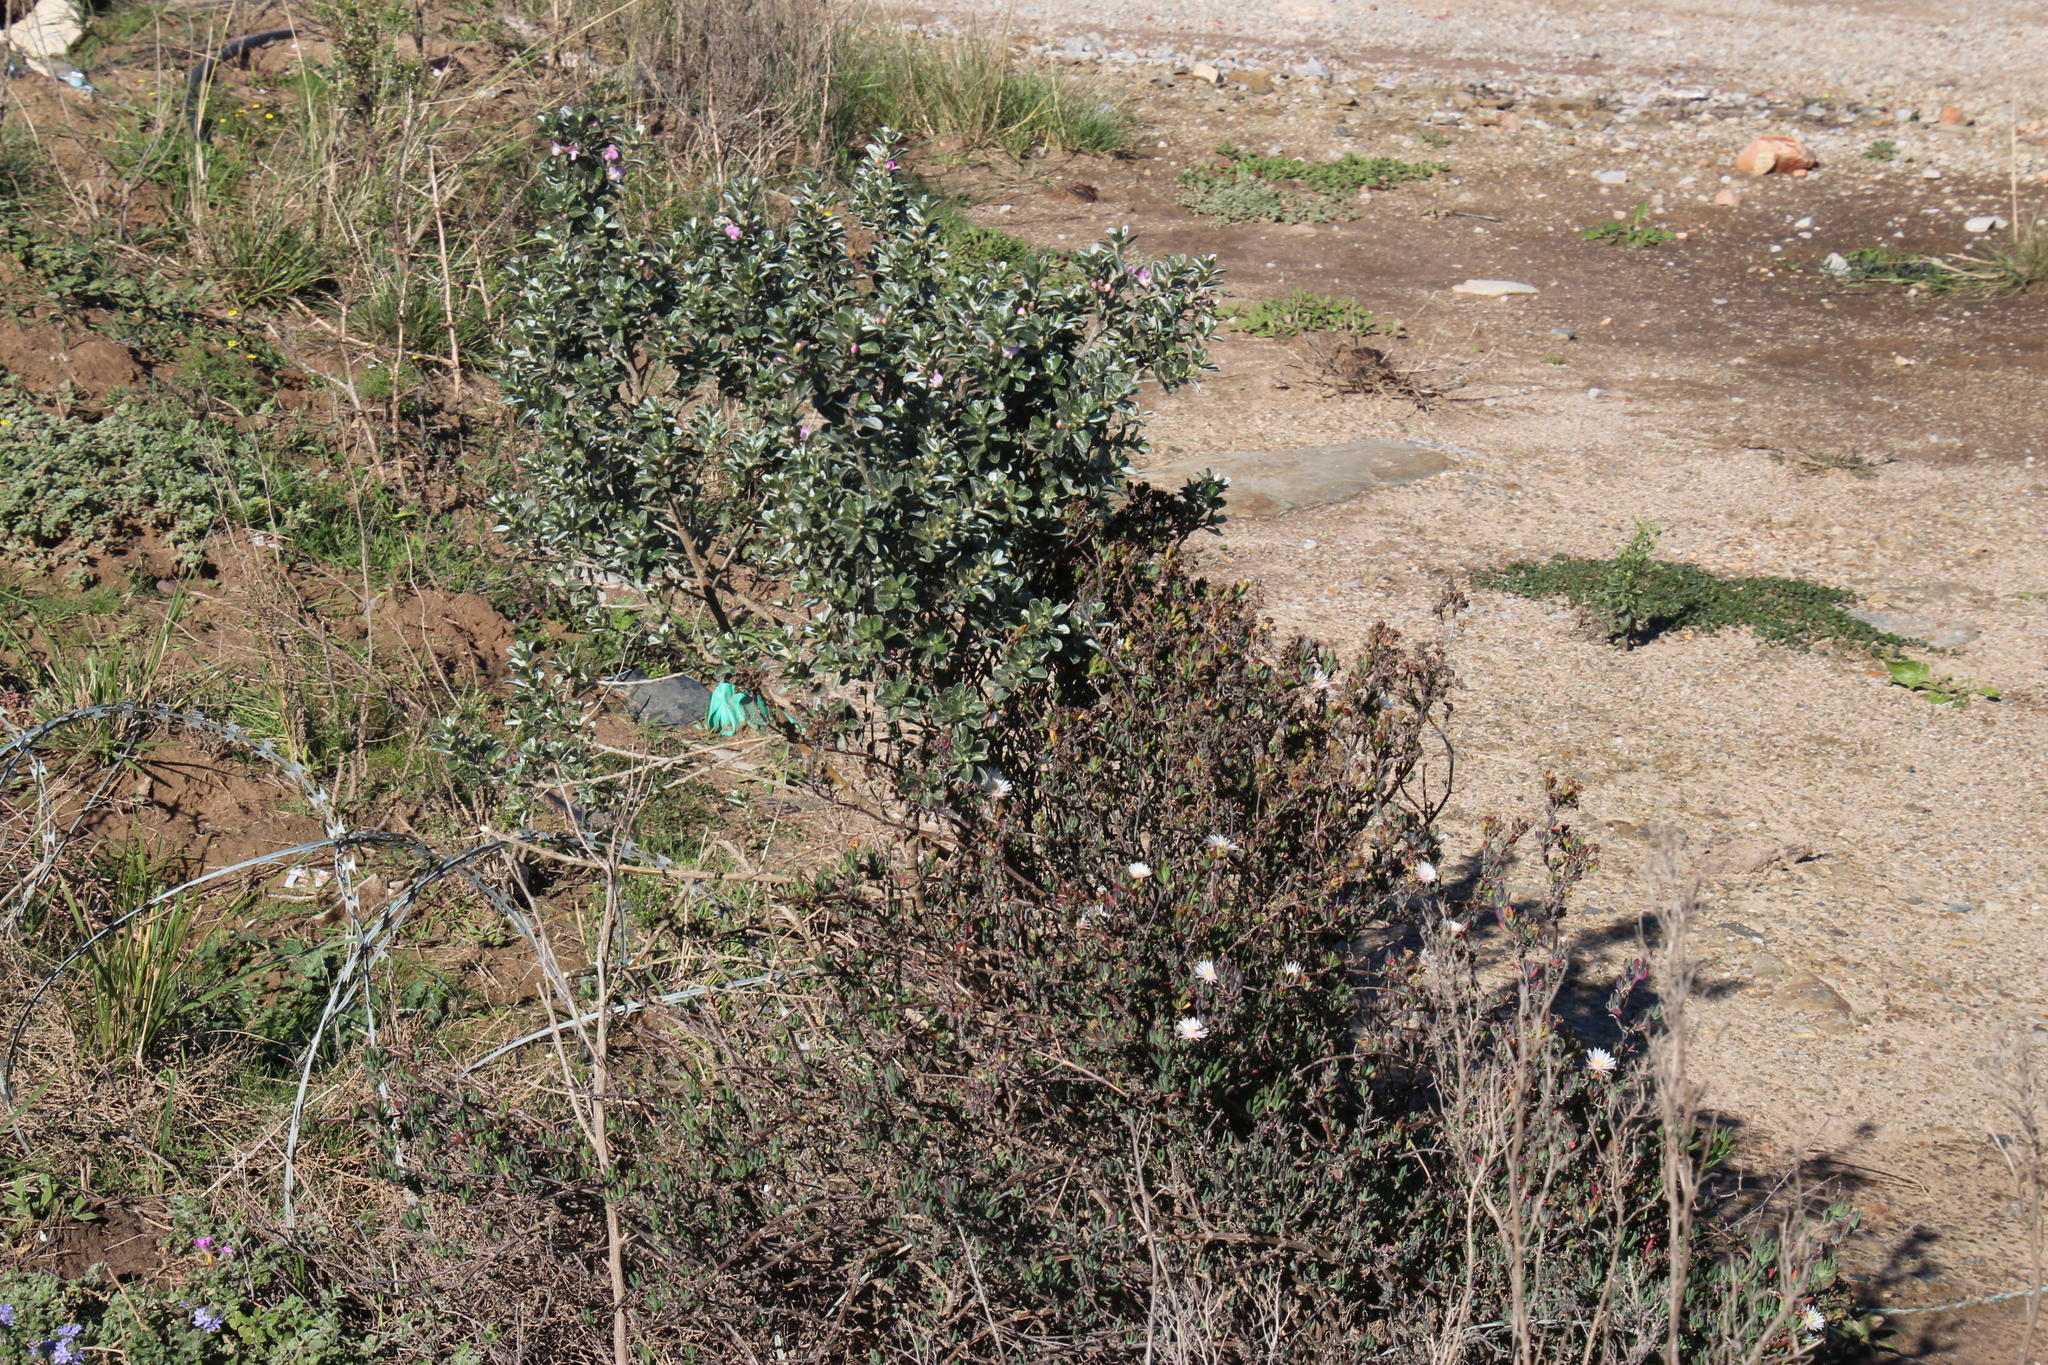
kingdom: Plantae
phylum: Tracheophyta
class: Magnoliopsida
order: Fabales
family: Fabaceae
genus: Podalyria
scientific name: Podalyria myrtillifolia
